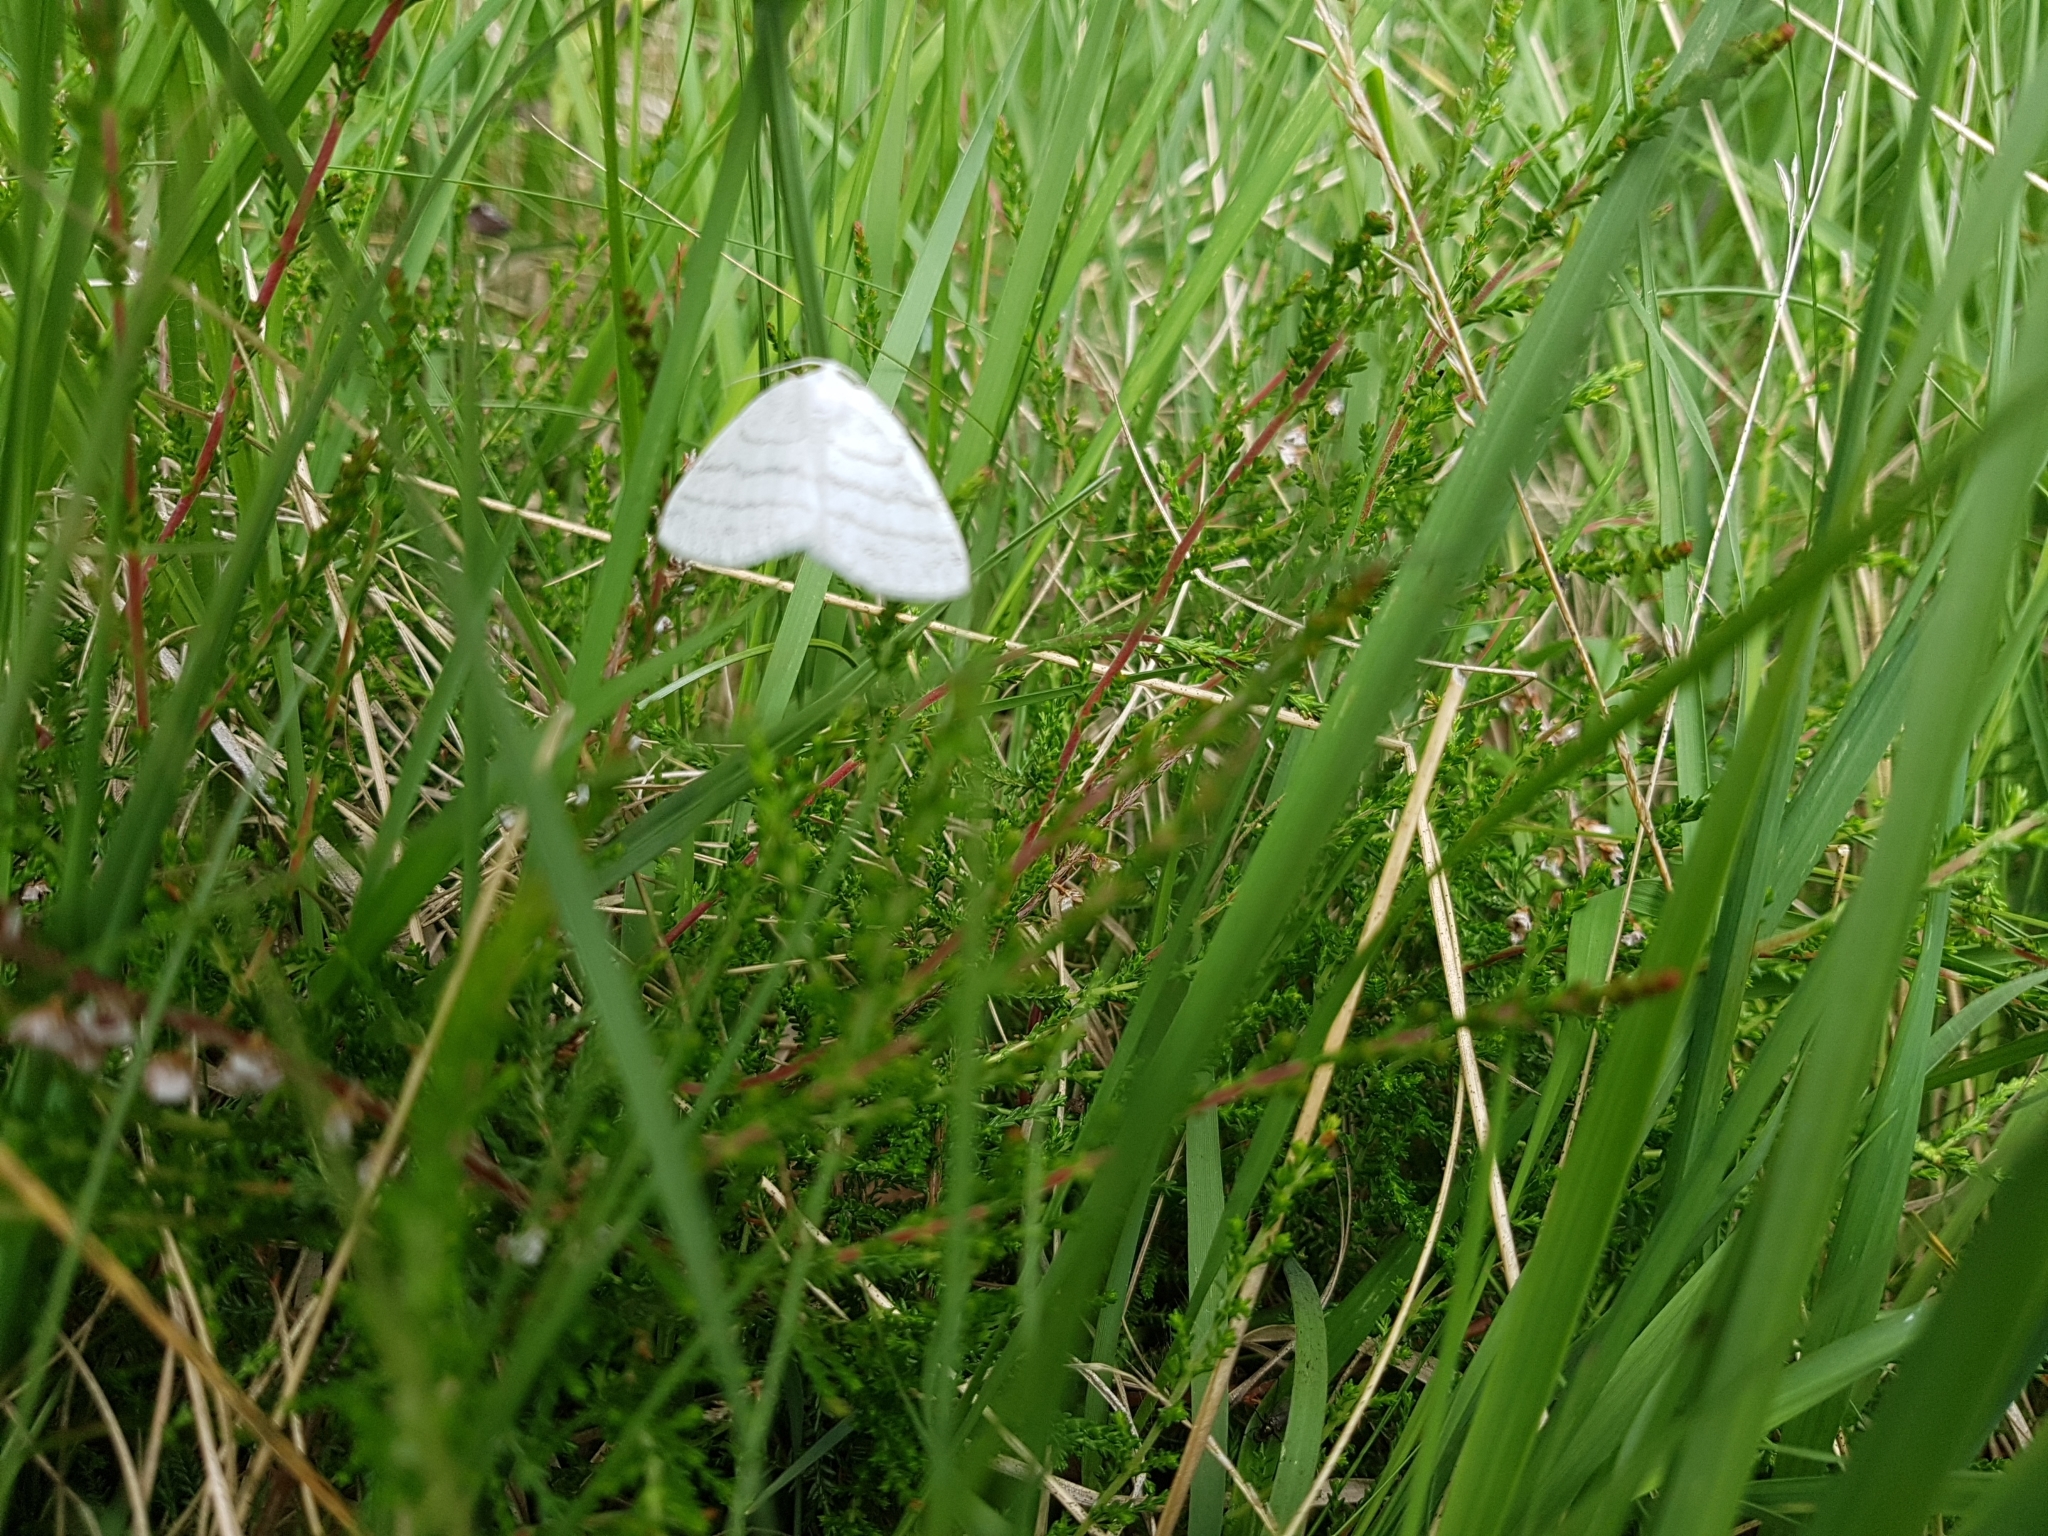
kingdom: Animalia
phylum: Arthropoda
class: Insecta
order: Lepidoptera
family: Geometridae
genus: Cabera
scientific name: Cabera pusaria
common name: Common white wave
